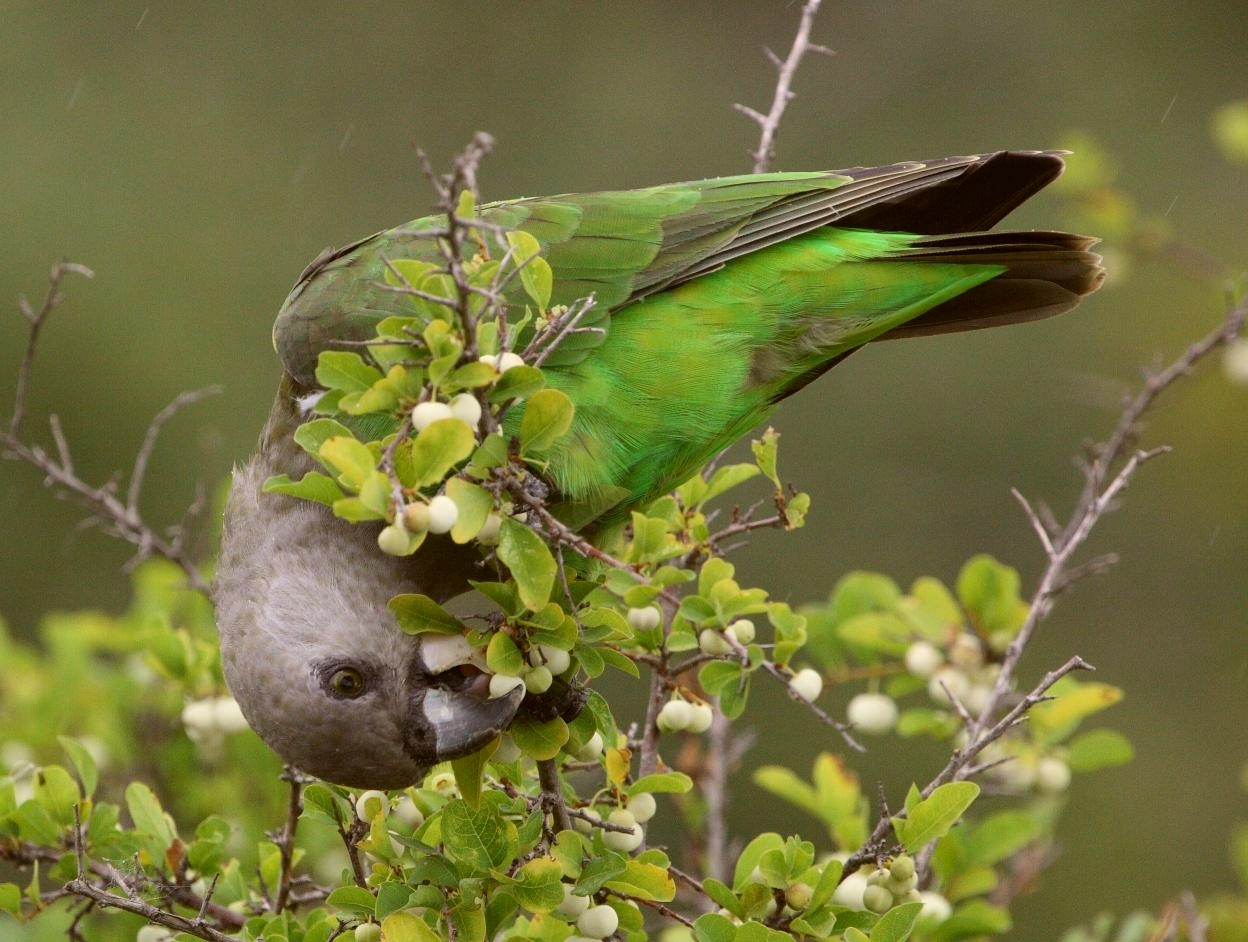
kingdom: Animalia
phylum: Chordata
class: Aves
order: Psittaciformes
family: Psittacidae
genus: Poicephalus
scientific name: Poicephalus cryptoxanthus
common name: Brown-headed parrot
